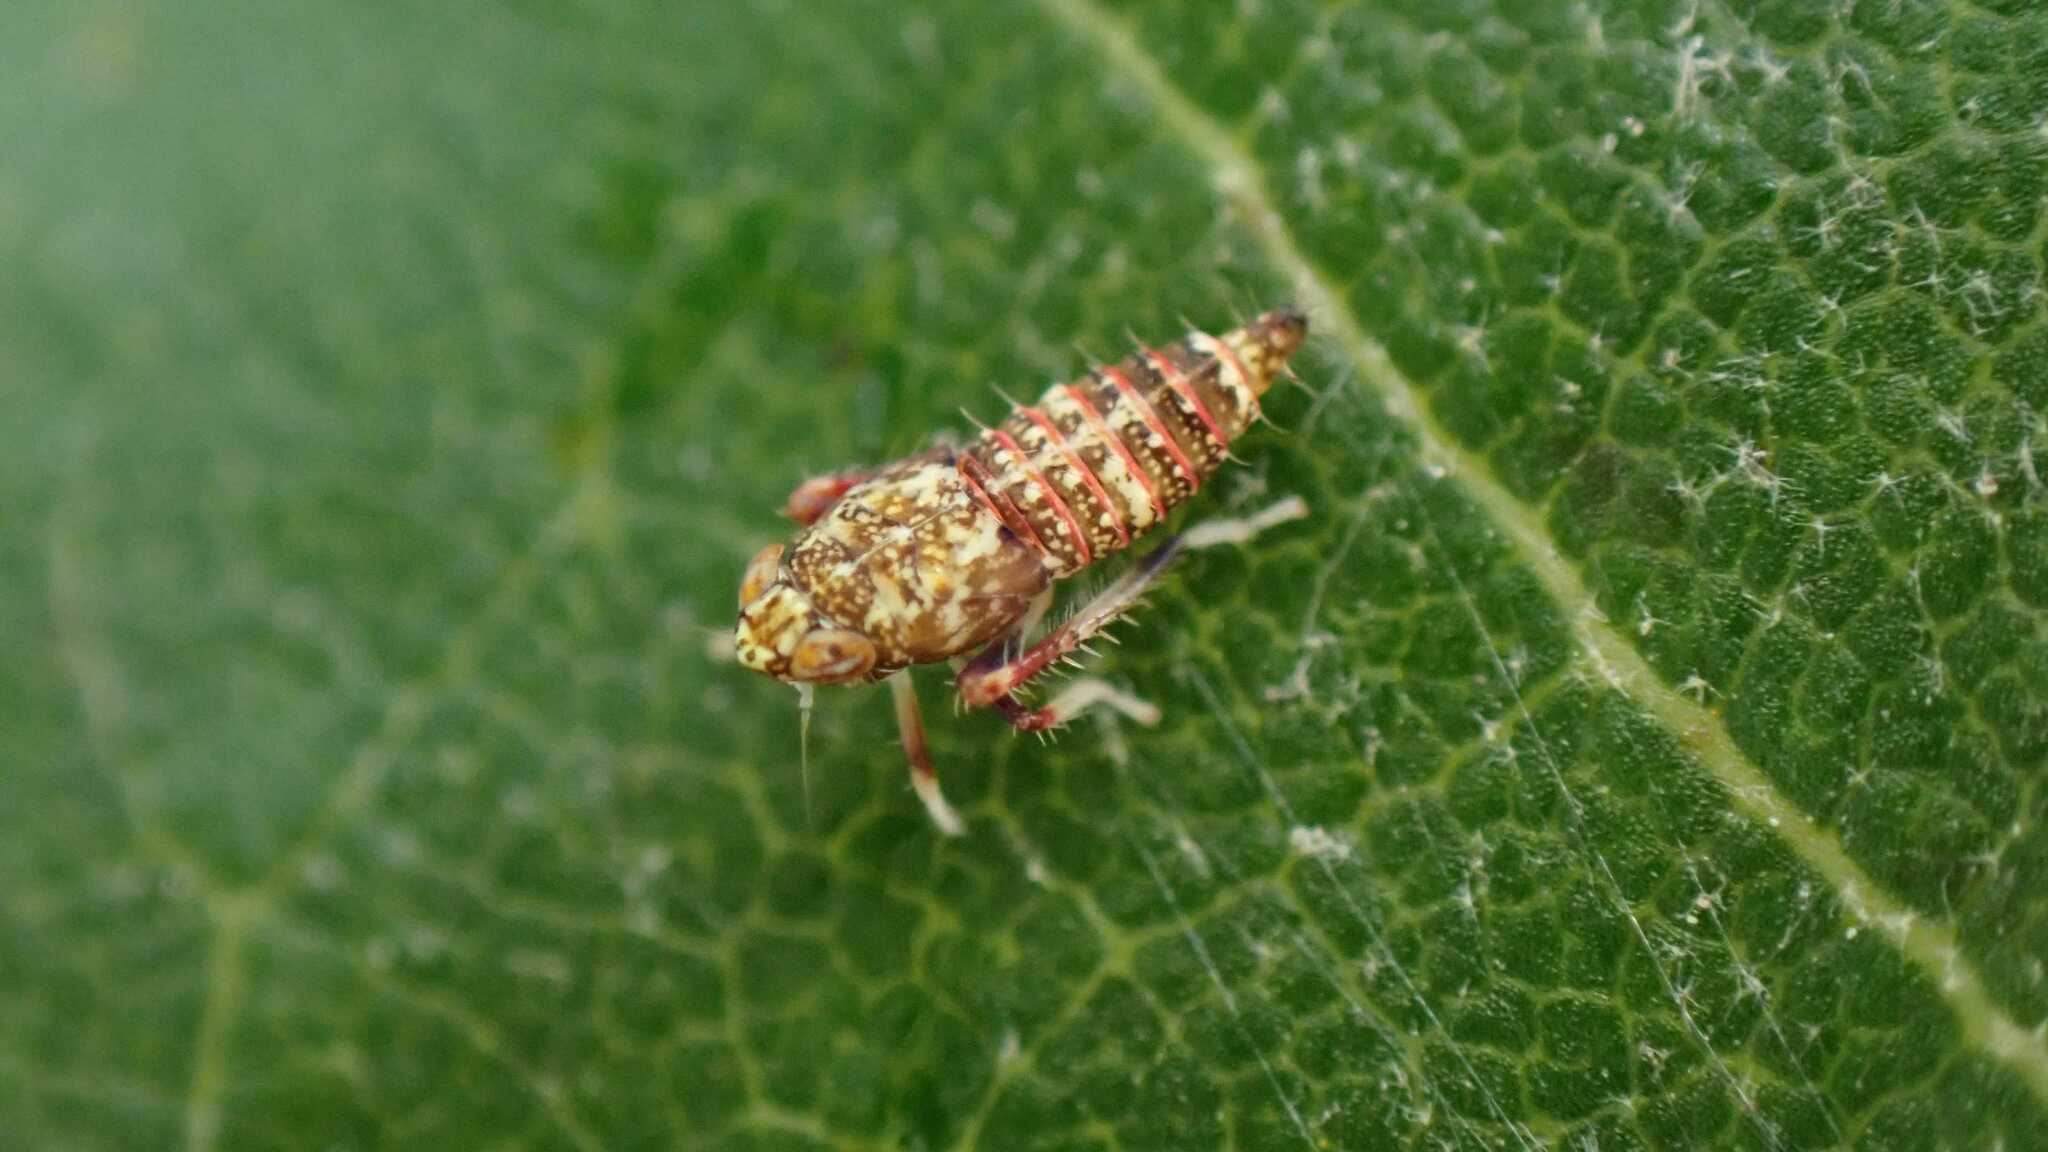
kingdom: Animalia
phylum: Arthropoda
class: Insecta
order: Hemiptera
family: Cicadellidae
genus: Orientus
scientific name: Orientus ishidae
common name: Japanese leafhopper
